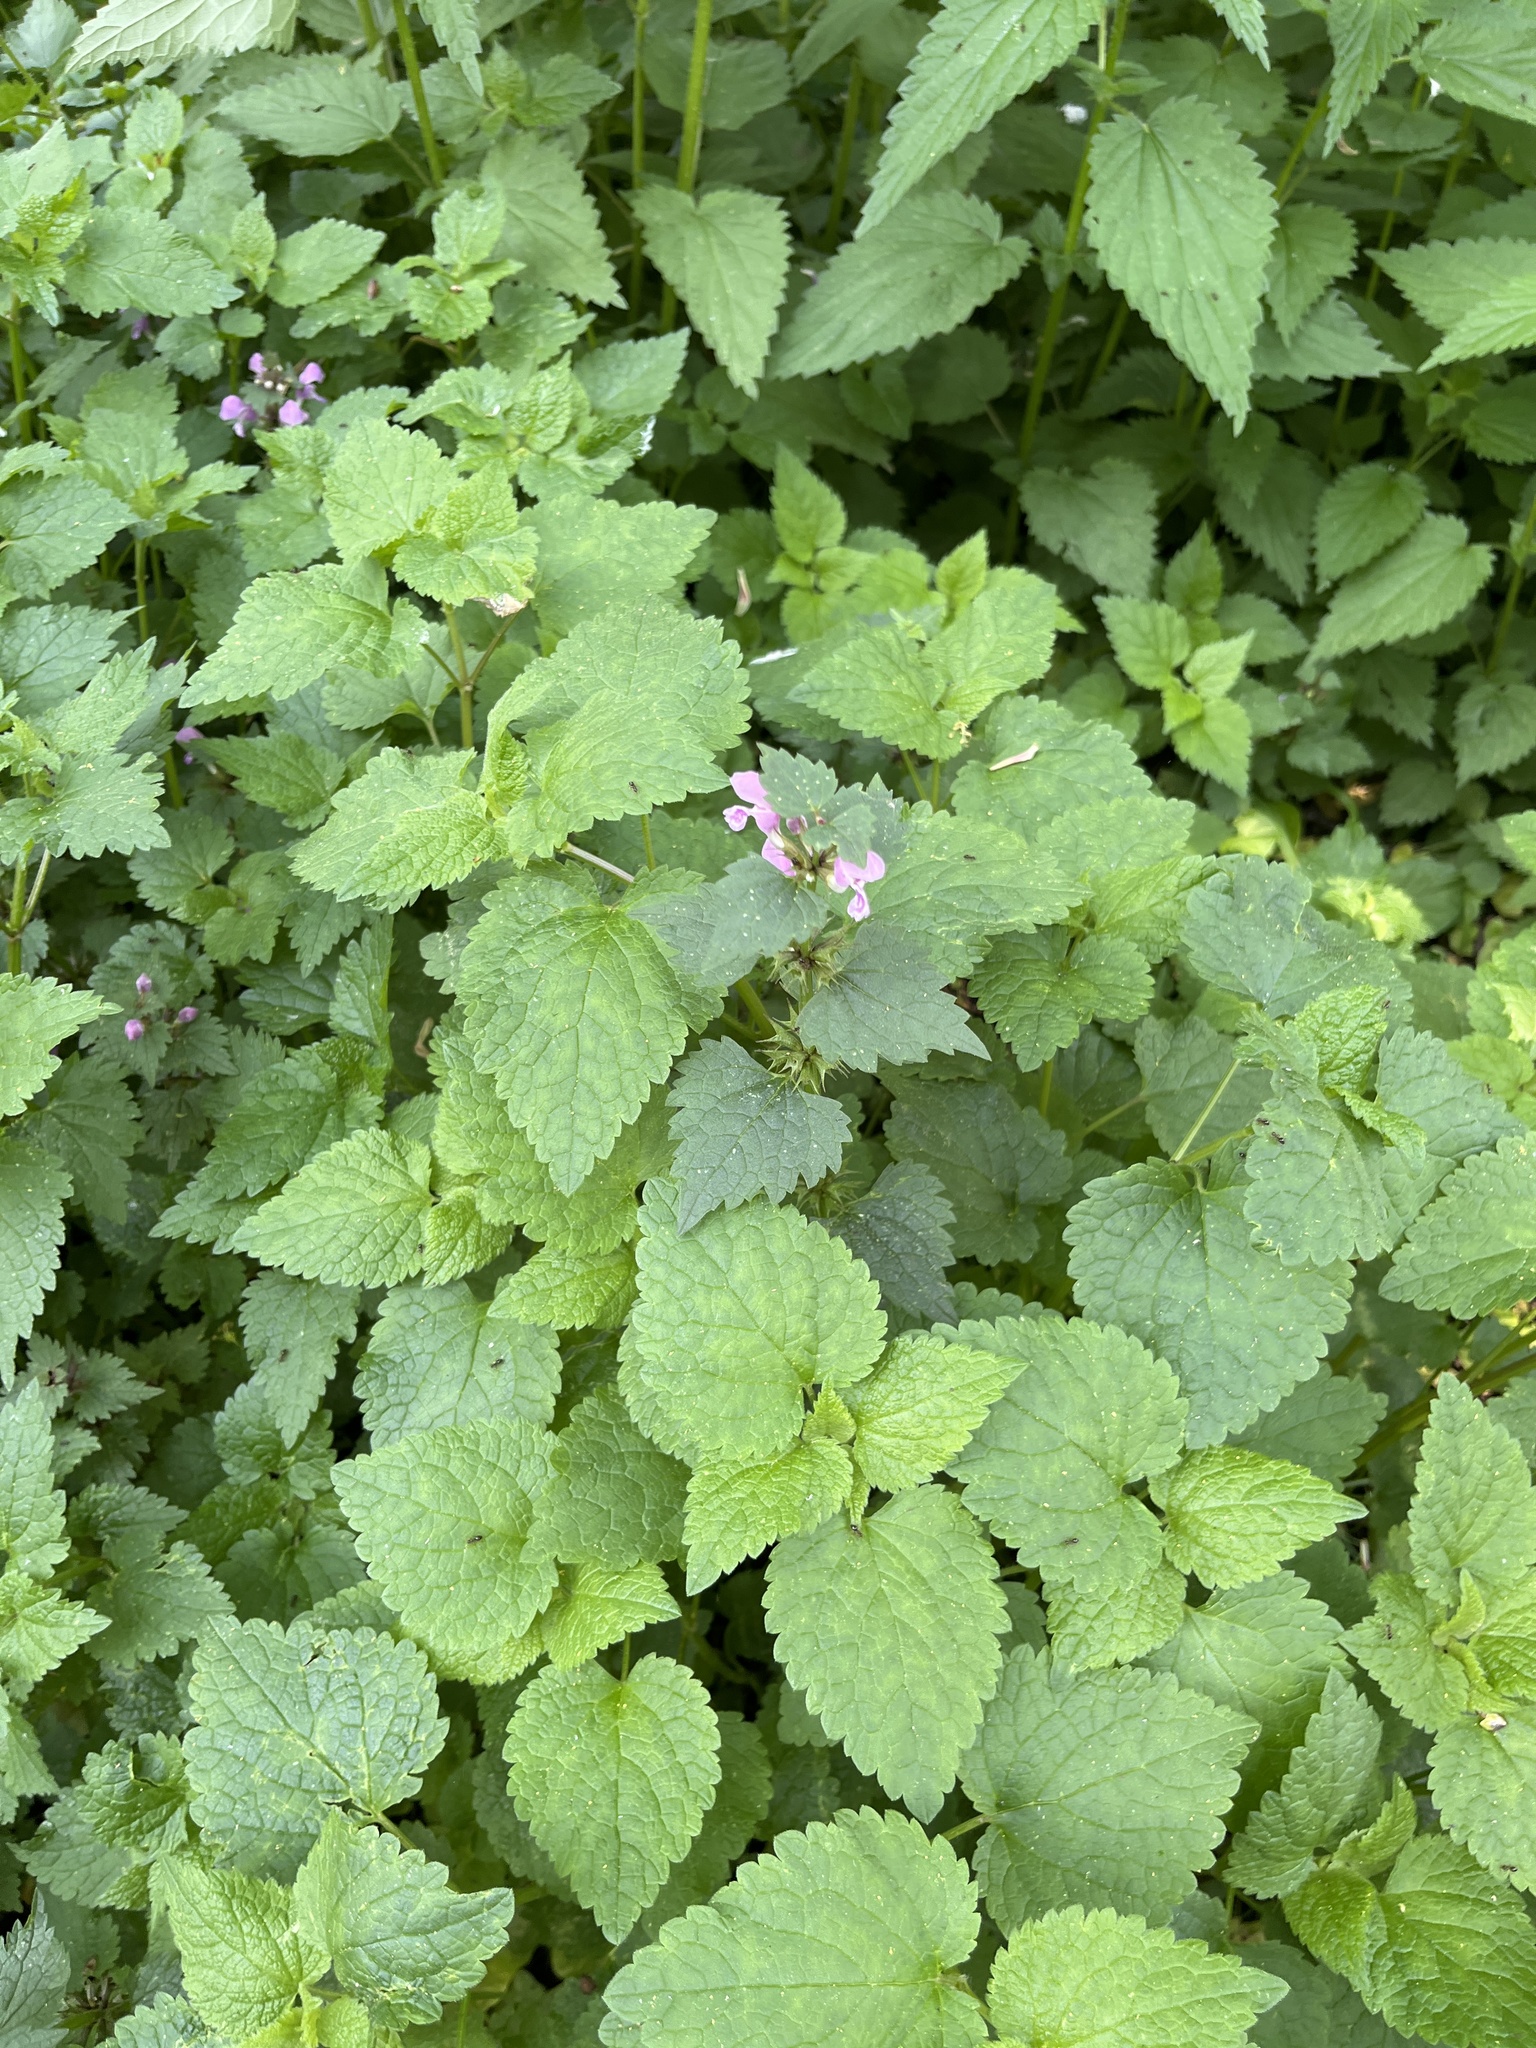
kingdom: Plantae
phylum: Tracheophyta
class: Magnoliopsida
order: Lamiales
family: Lamiaceae
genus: Lamium
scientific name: Lamium maculatum
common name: Spotted dead-nettle
